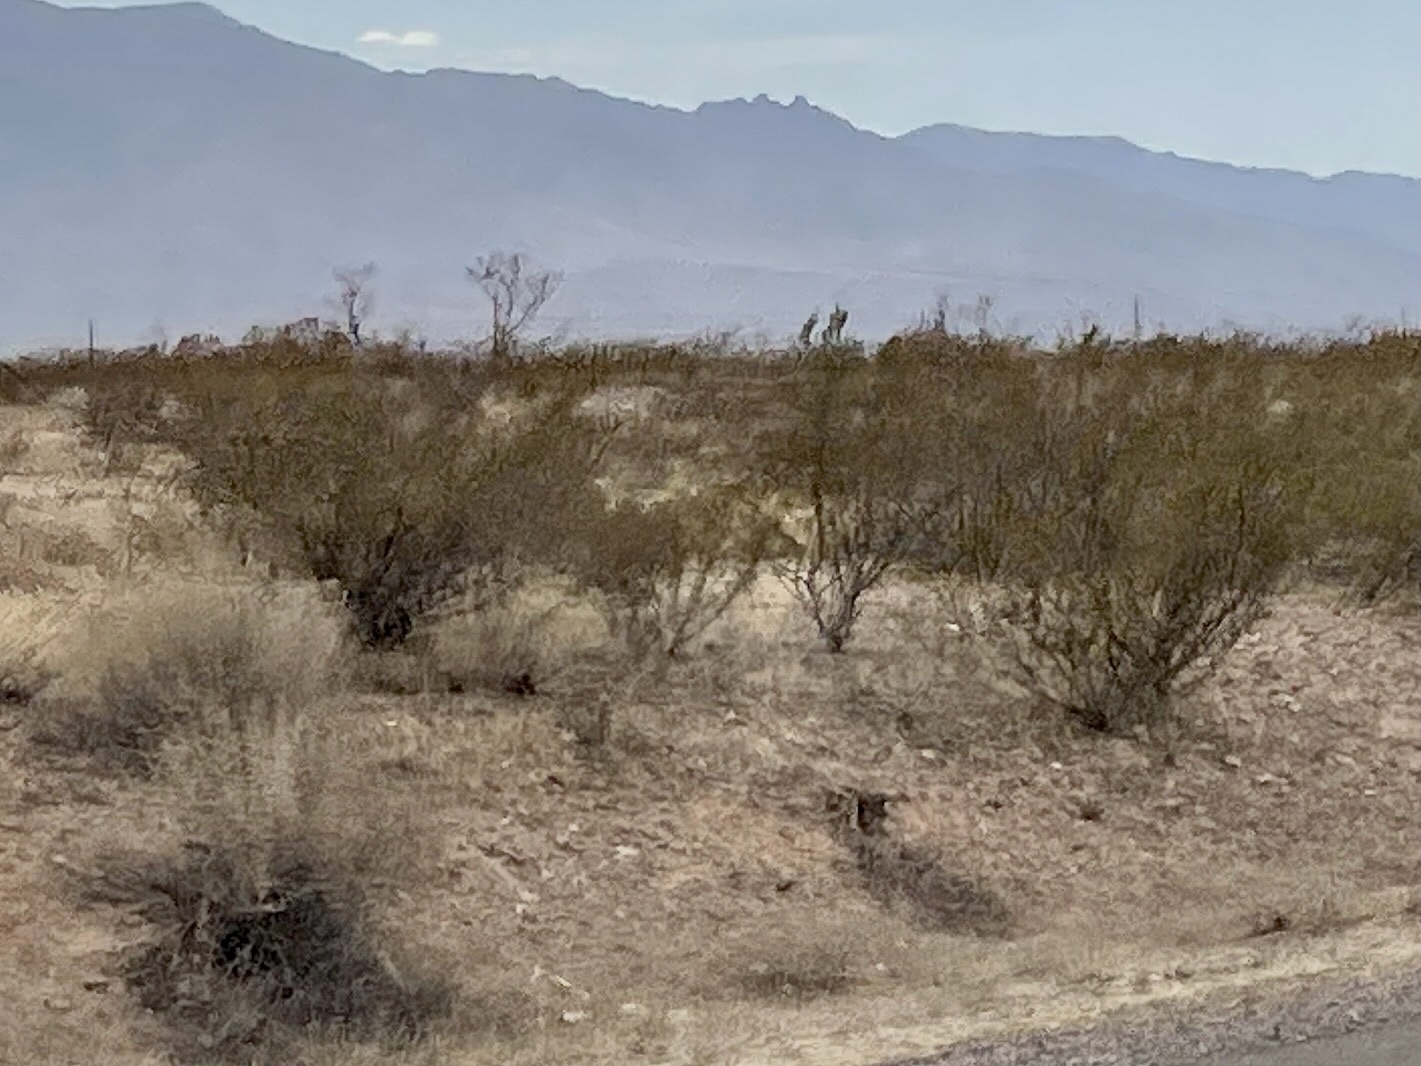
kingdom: Plantae
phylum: Tracheophyta
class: Magnoliopsida
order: Zygophyllales
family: Zygophyllaceae
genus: Larrea
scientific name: Larrea tridentata
